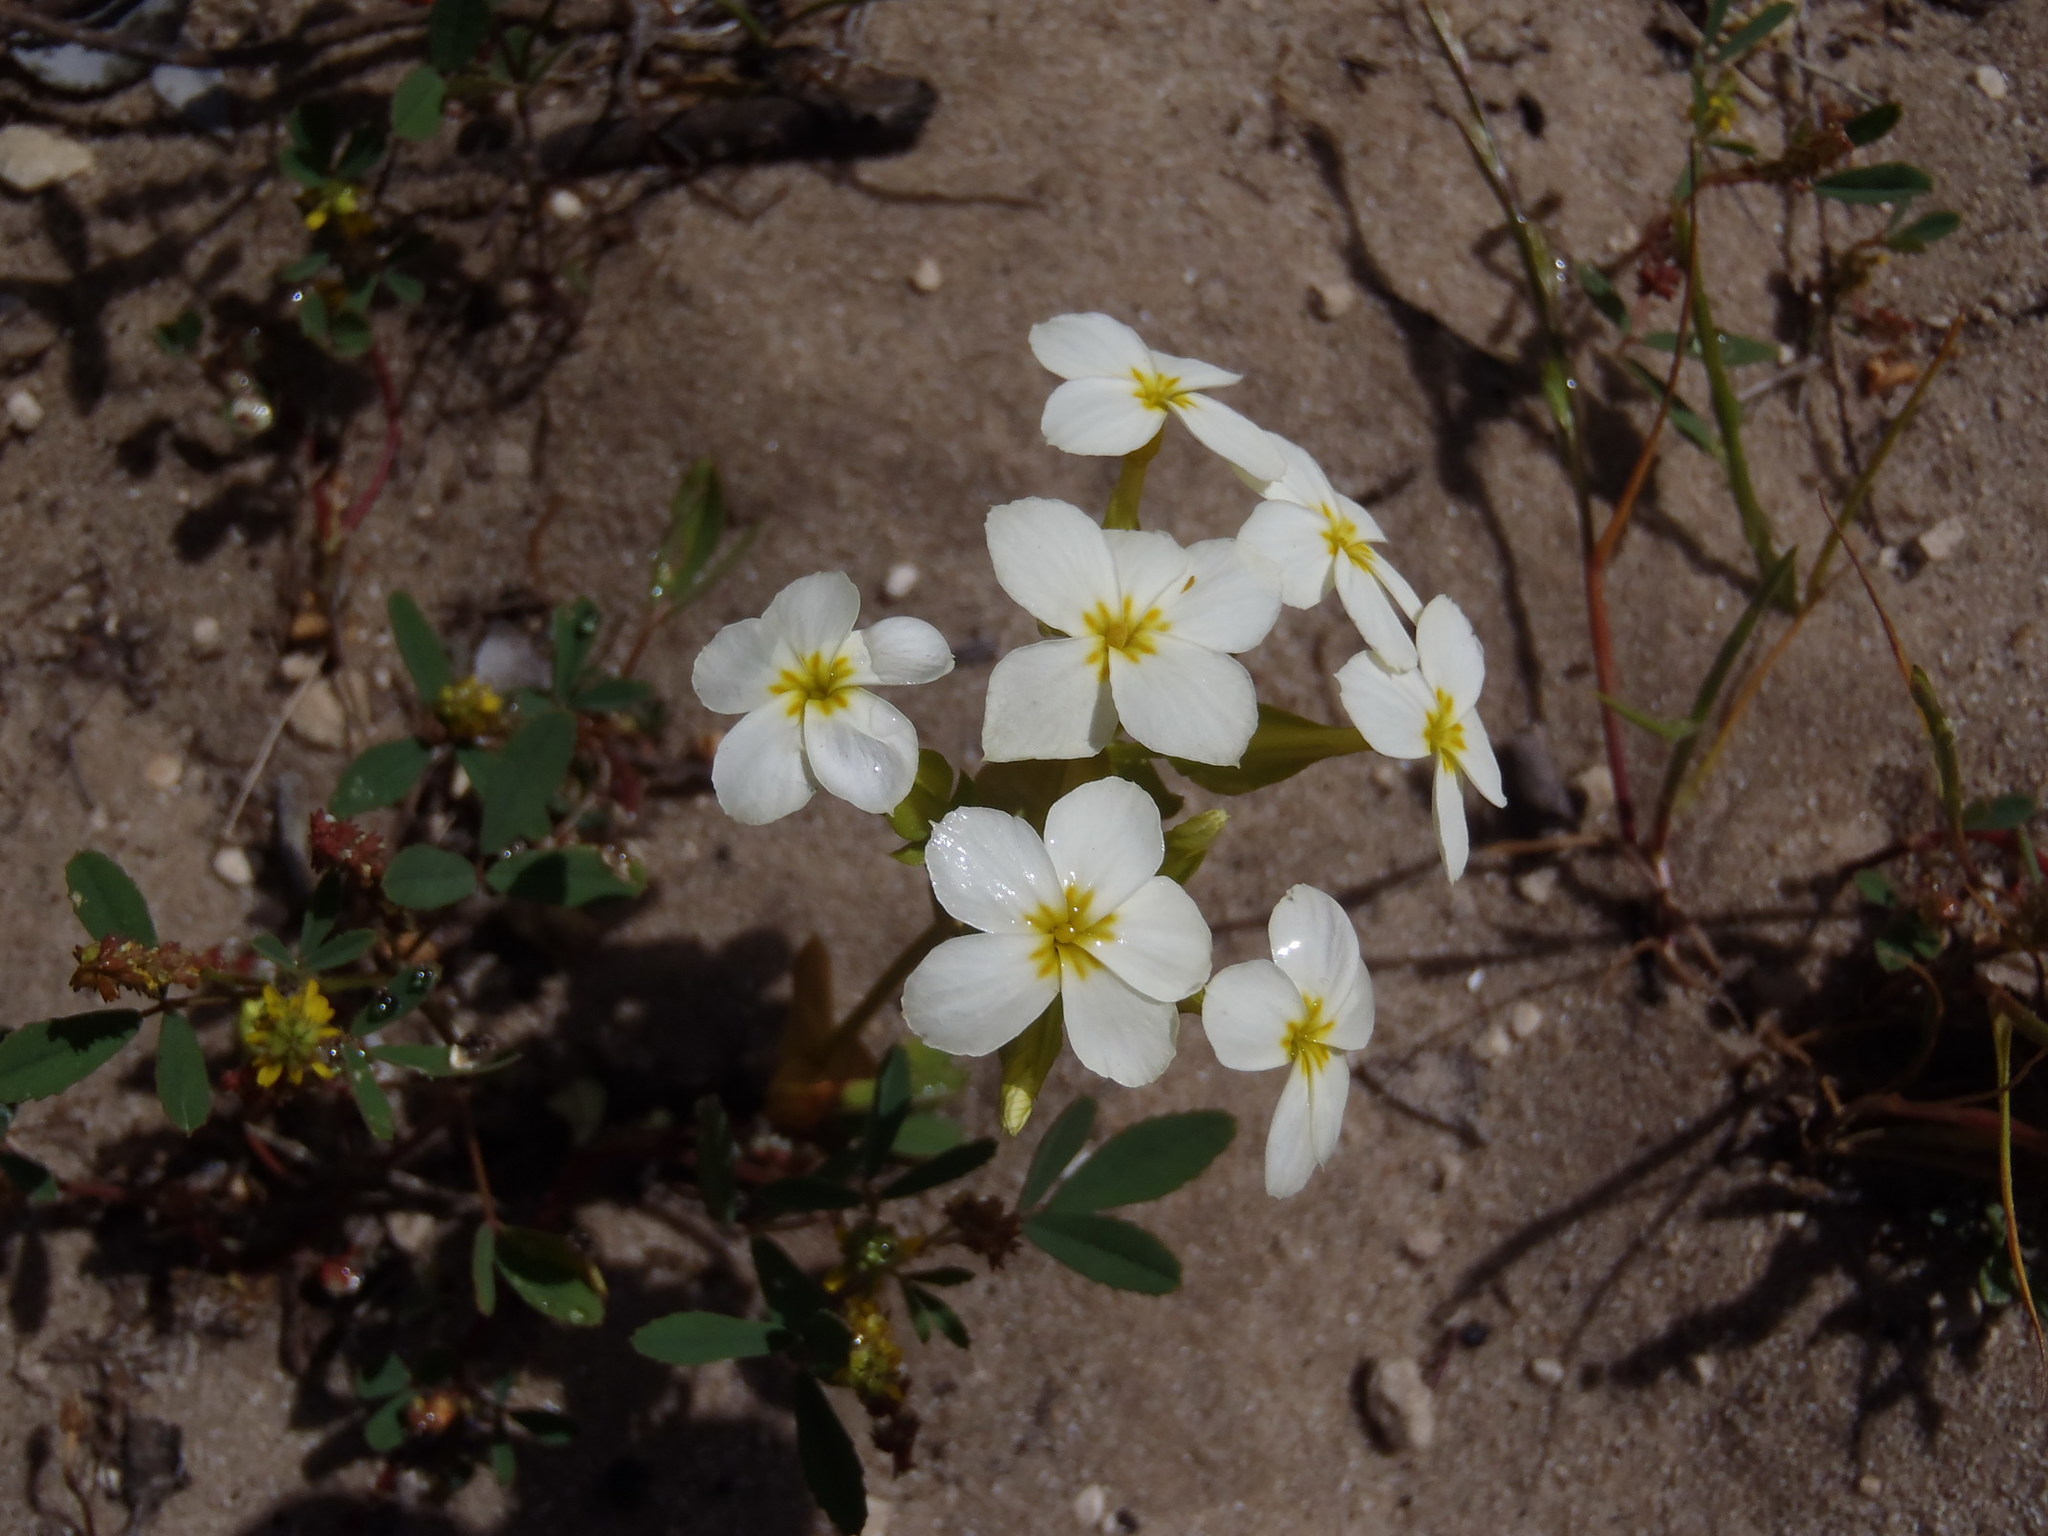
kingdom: Plantae
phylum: Tracheophyta
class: Magnoliopsida
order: Gentianales
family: Gentianaceae
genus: Sebaea
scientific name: Sebaea exacoides
